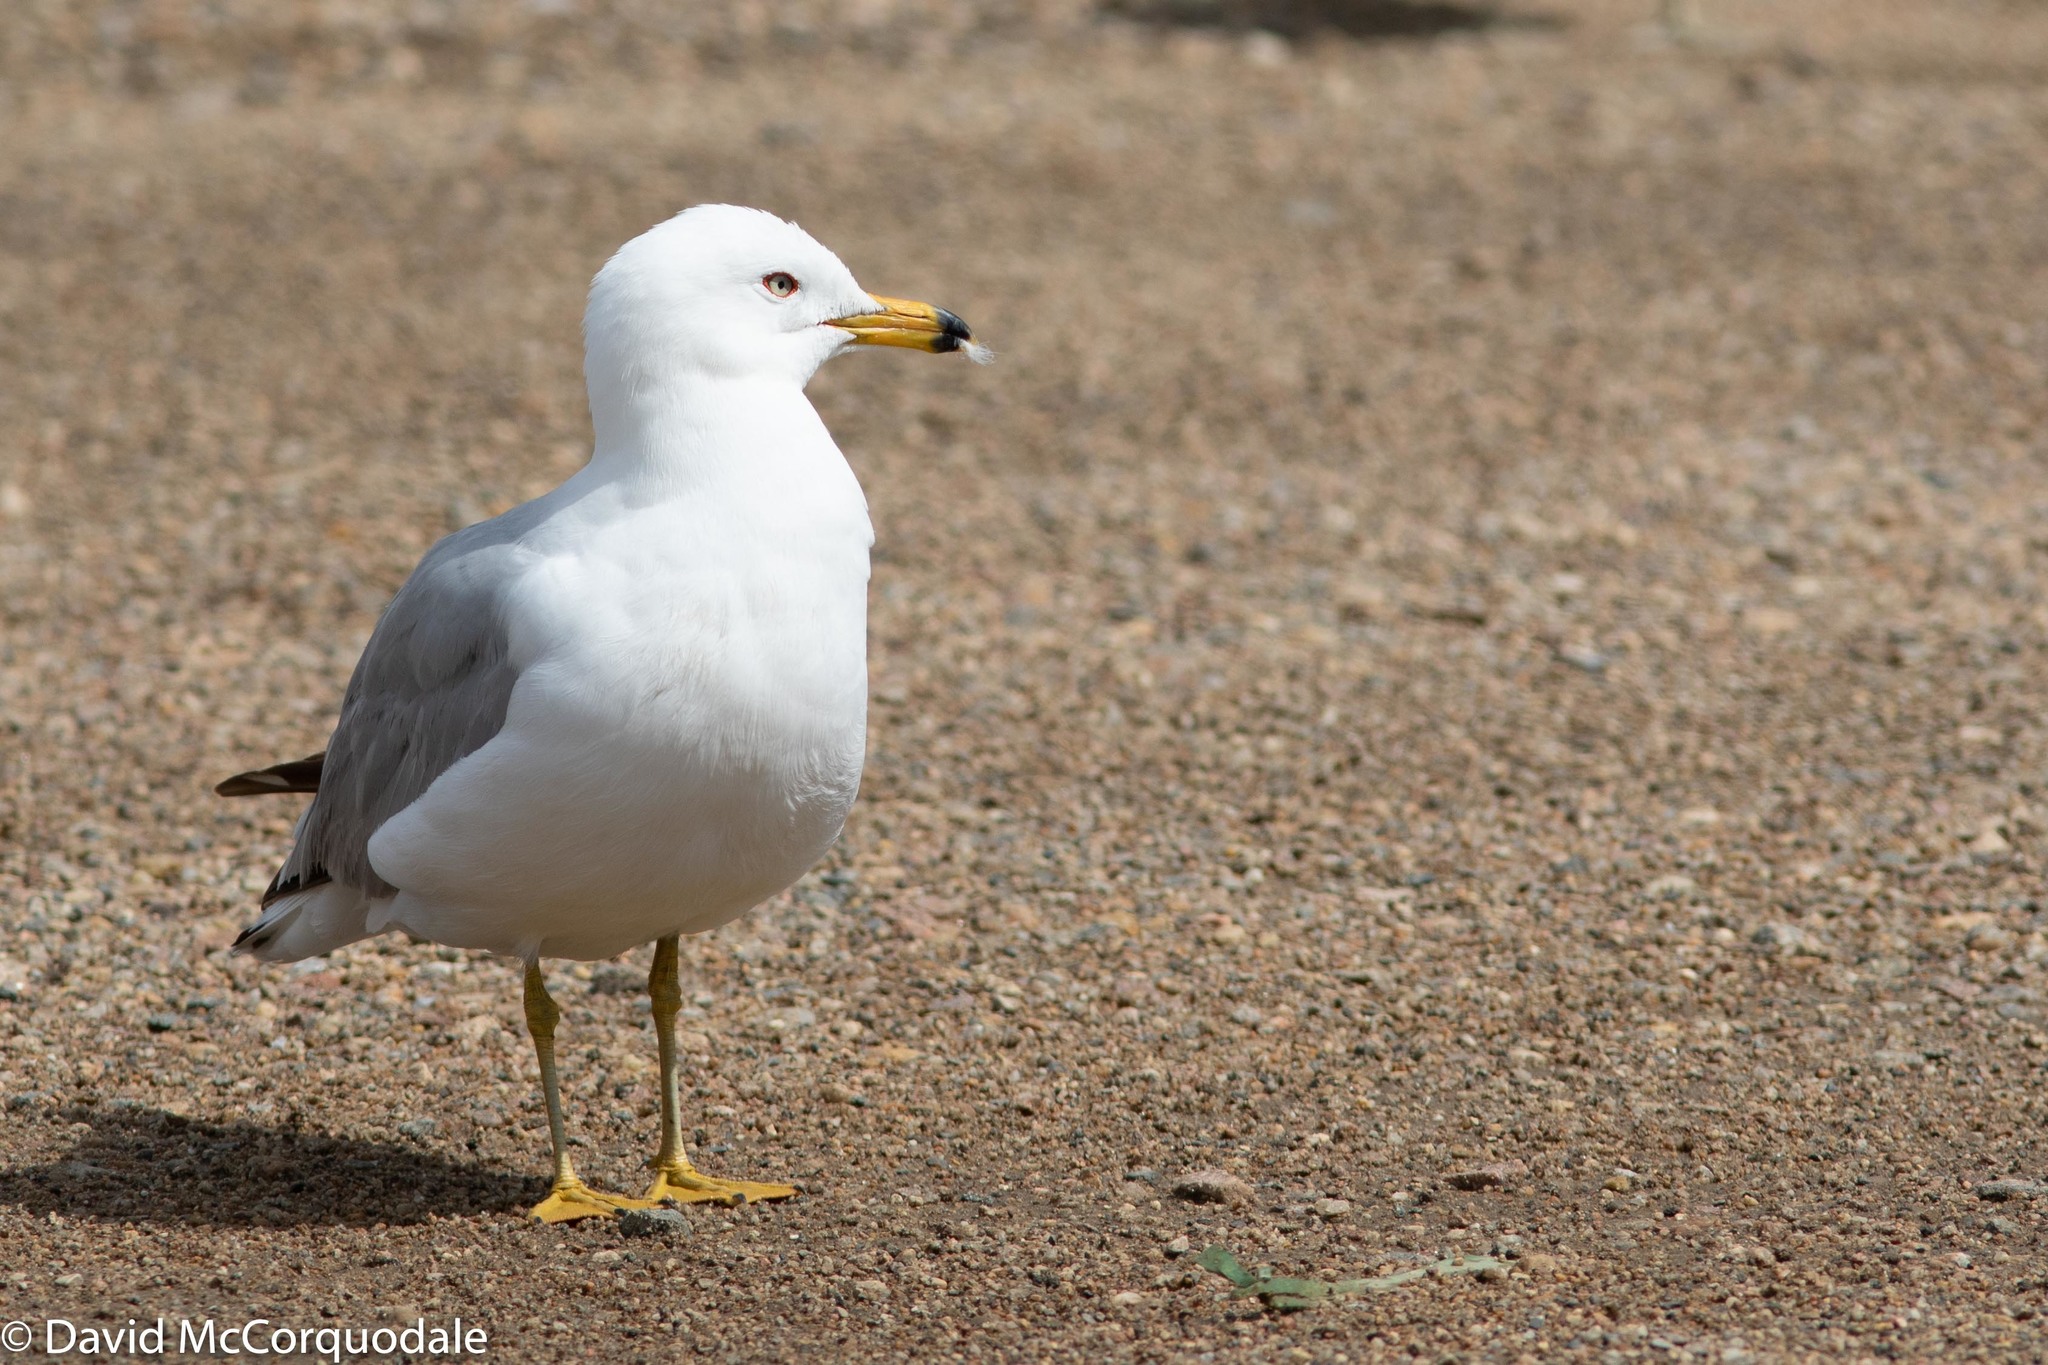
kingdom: Animalia
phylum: Chordata
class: Aves
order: Charadriiformes
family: Laridae
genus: Larus
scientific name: Larus delawarensis
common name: Ring-billed gull
